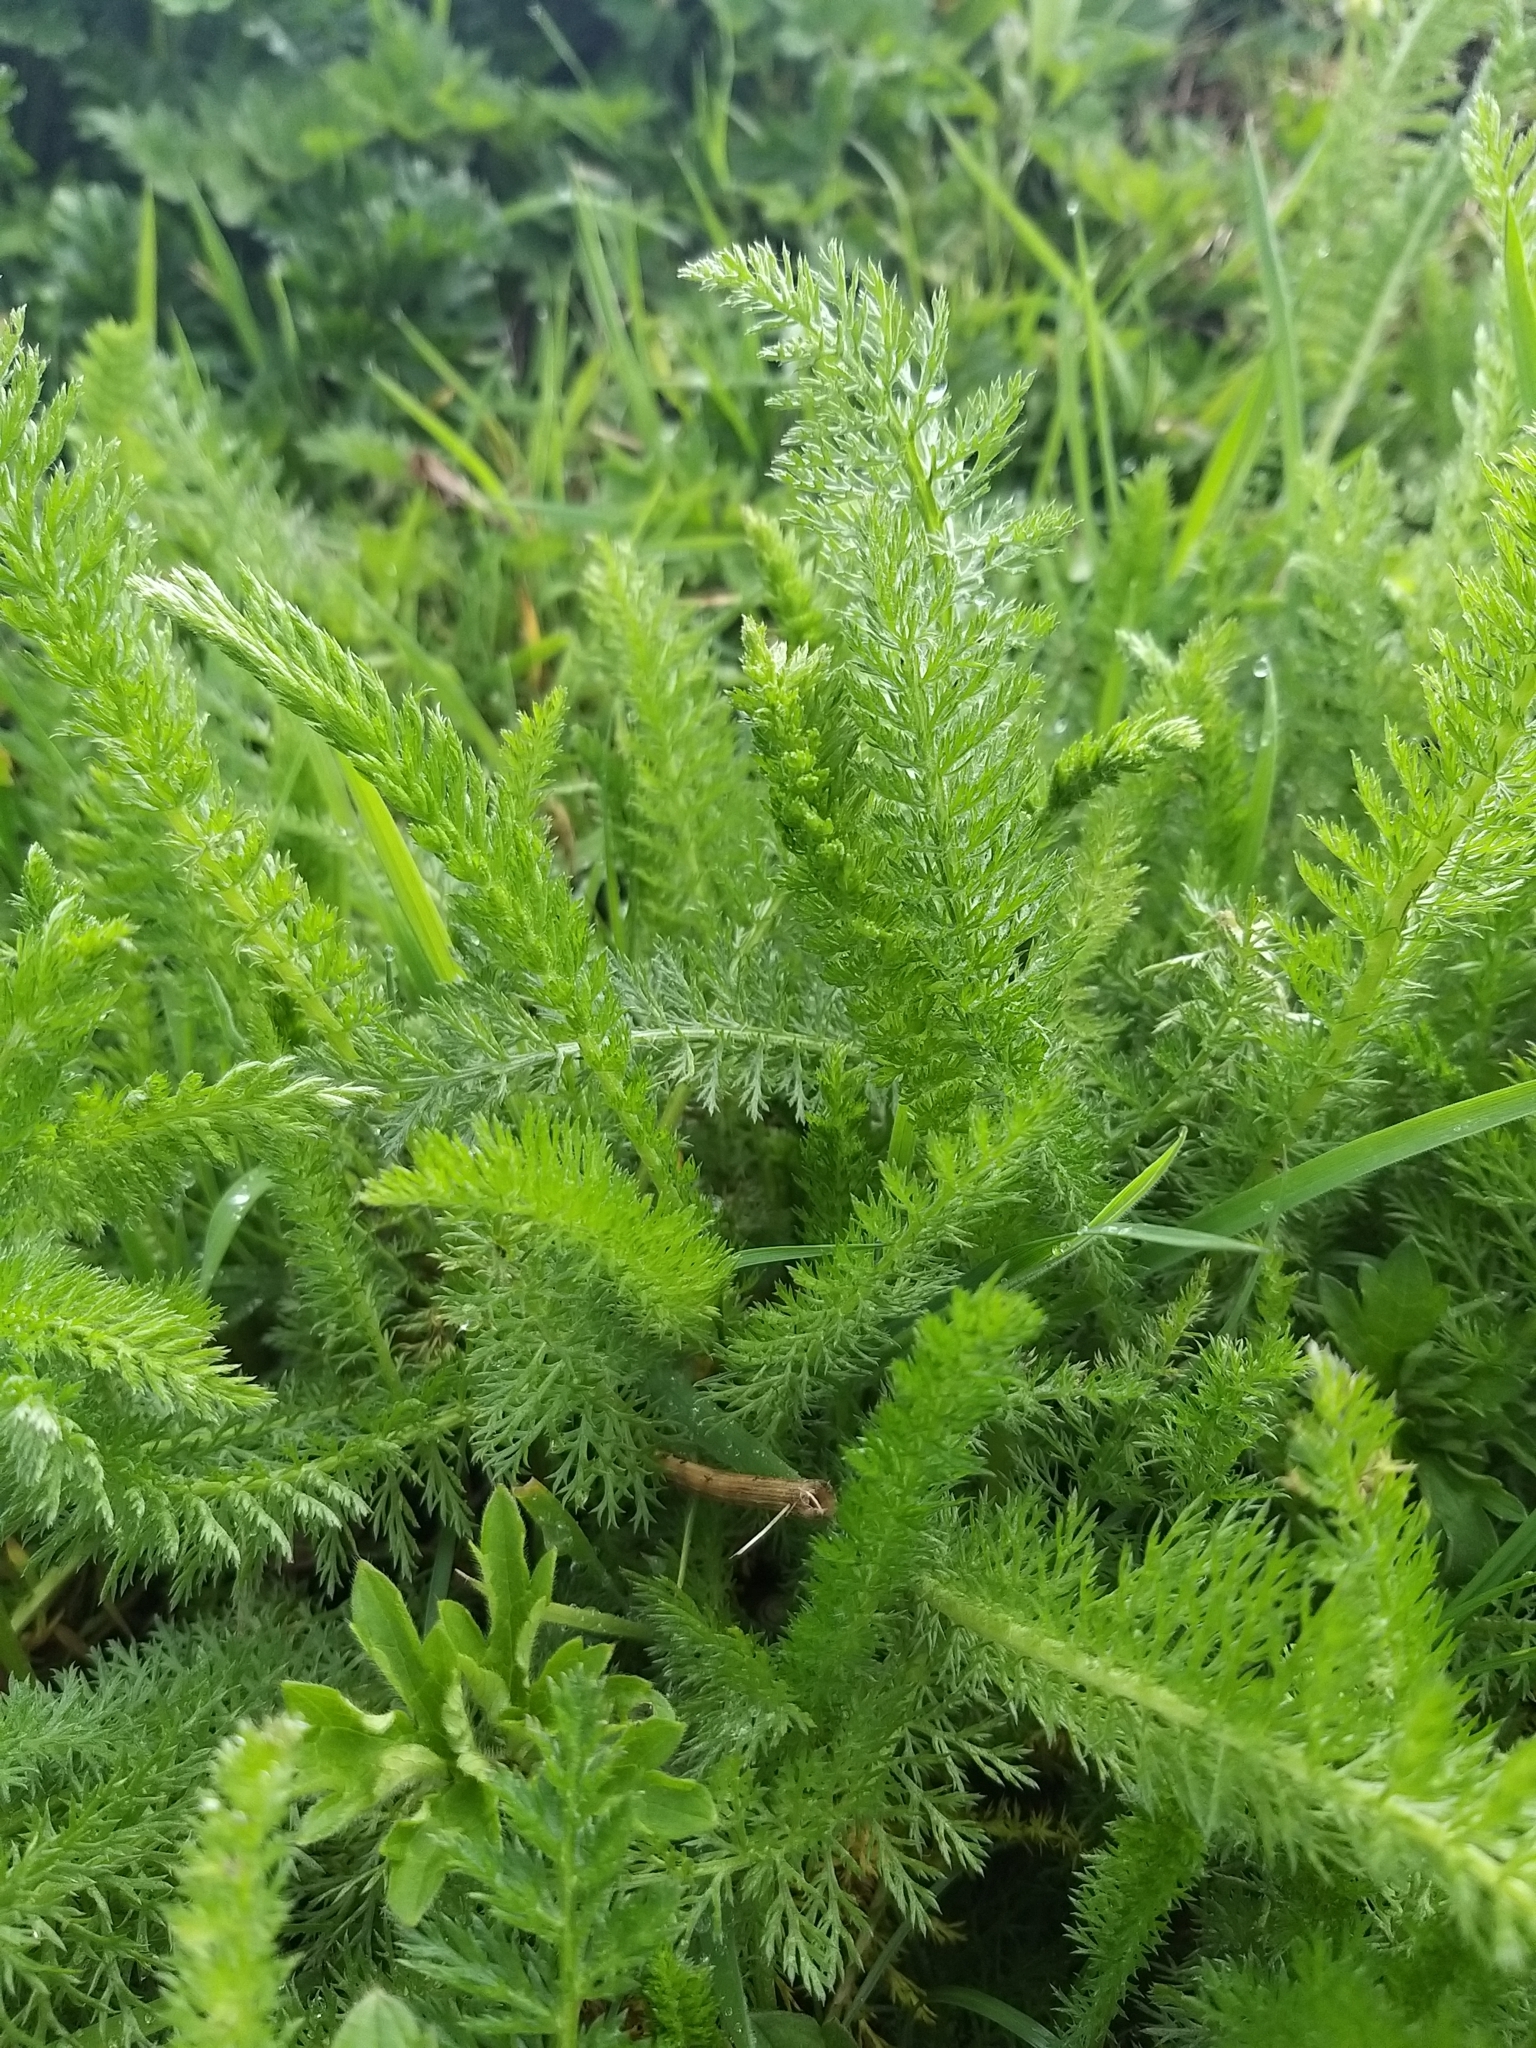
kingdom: Plantae
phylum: Tracheophyta
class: Magnoliopsida
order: Asterales
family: Asteraceae
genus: Achillea
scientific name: Achillea millefolium
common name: Yarrow
